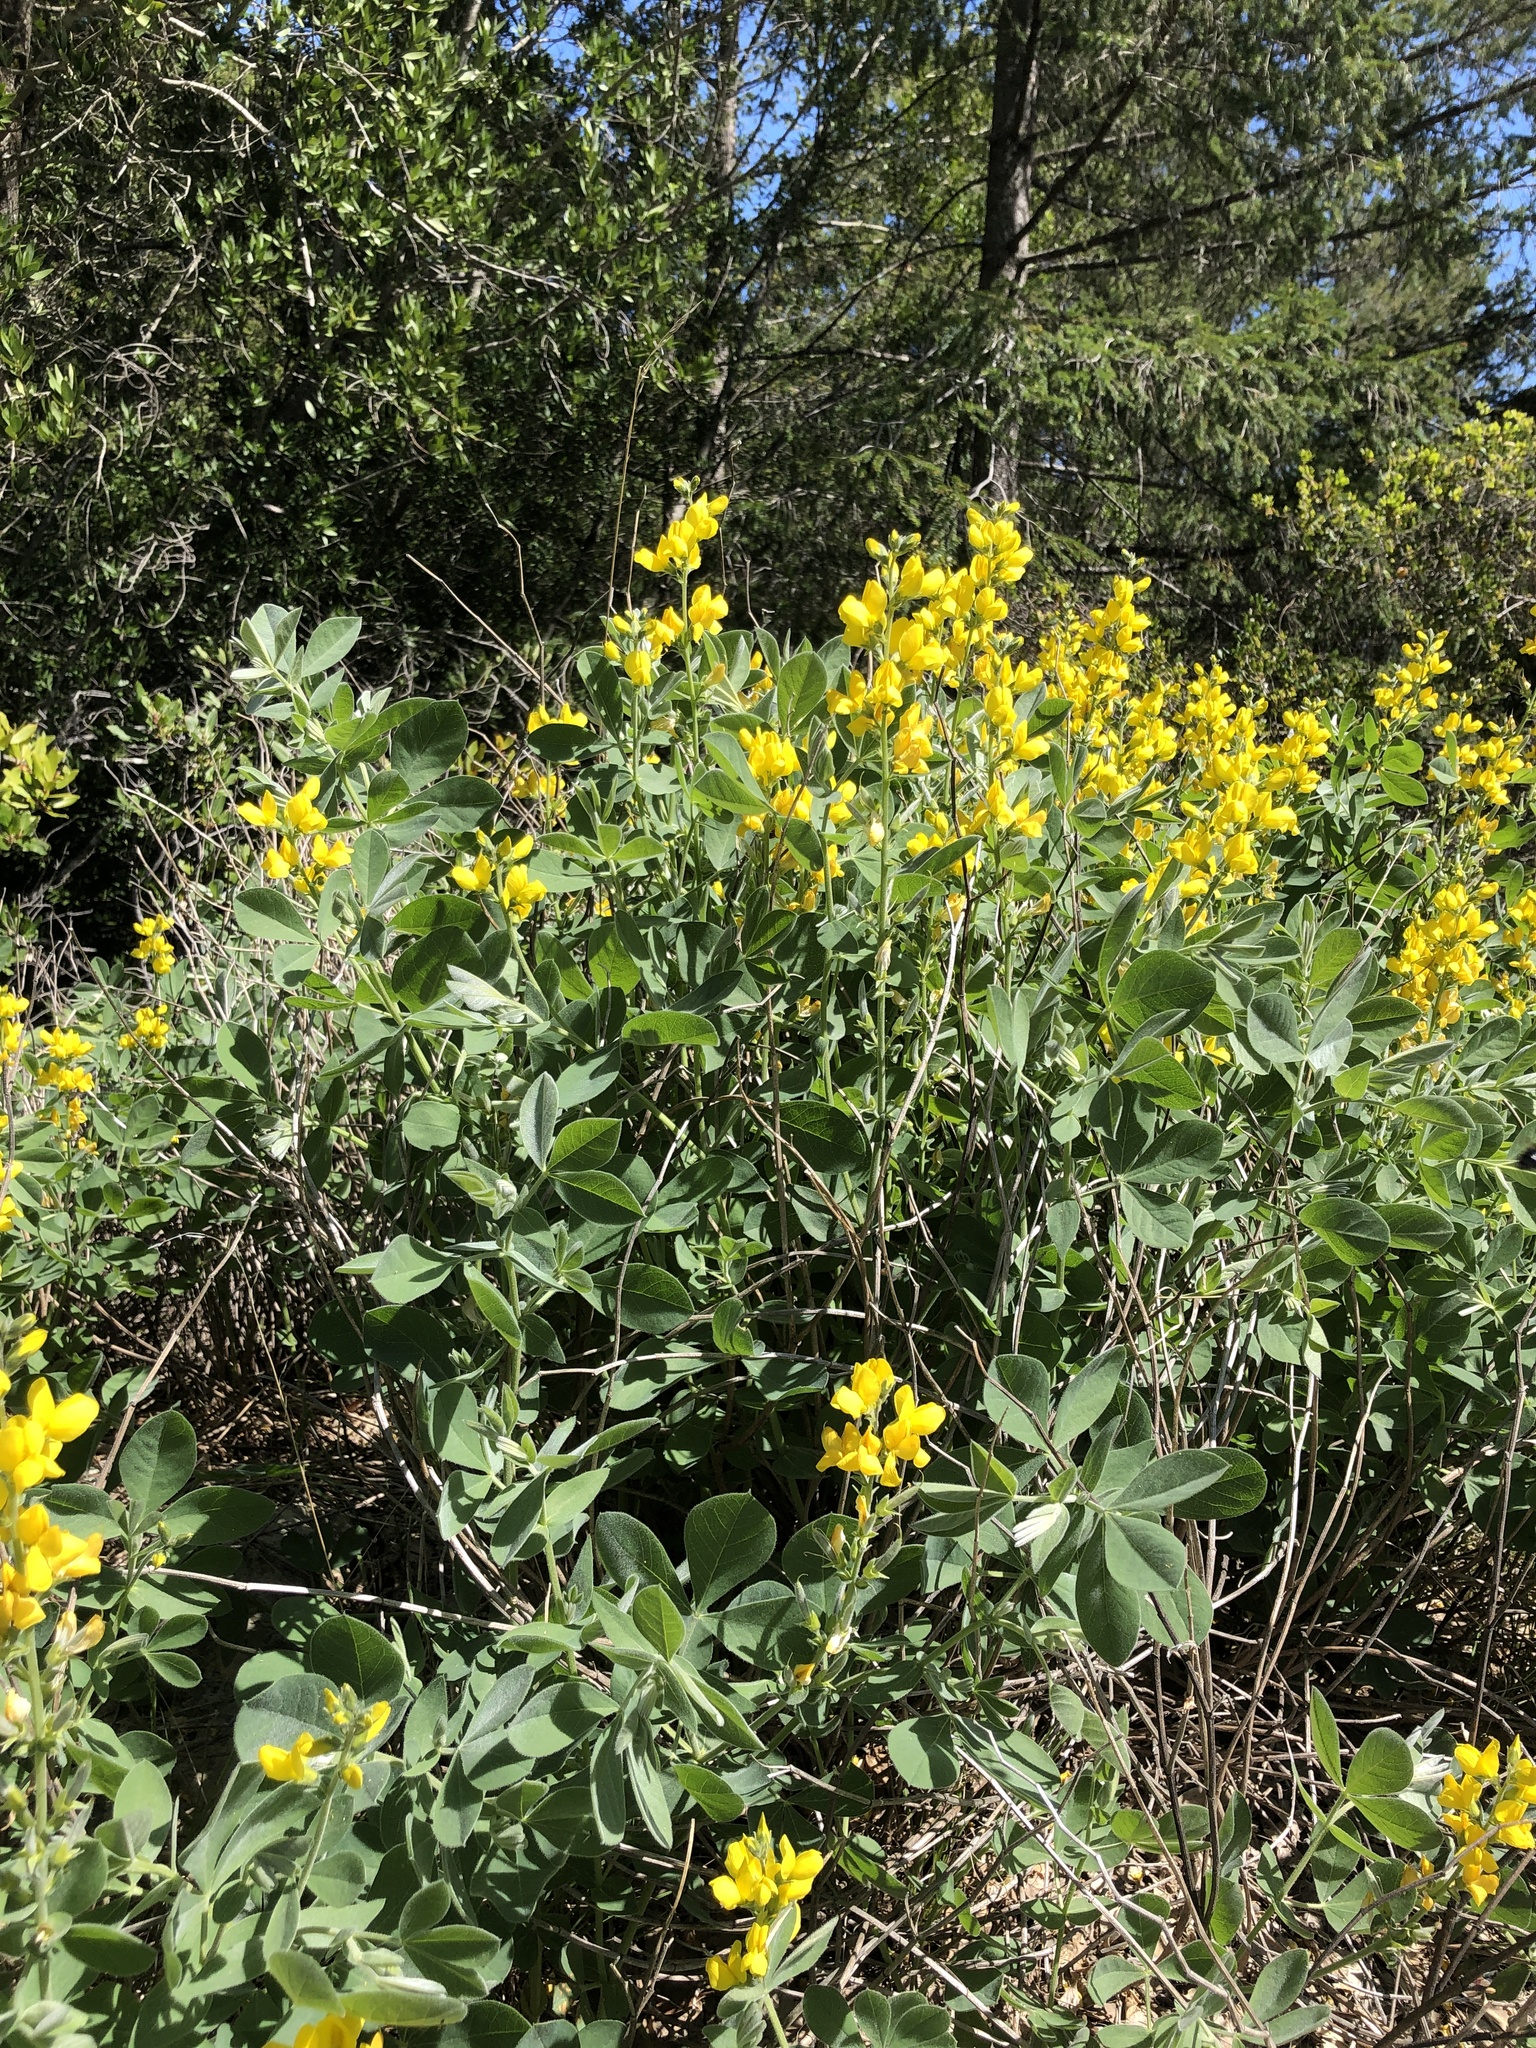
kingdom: Plantae
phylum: Tracheophyta
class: Magnoliopsida
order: Fabales
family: Fabaceae
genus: Thermopsis
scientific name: Thermopsis californica
